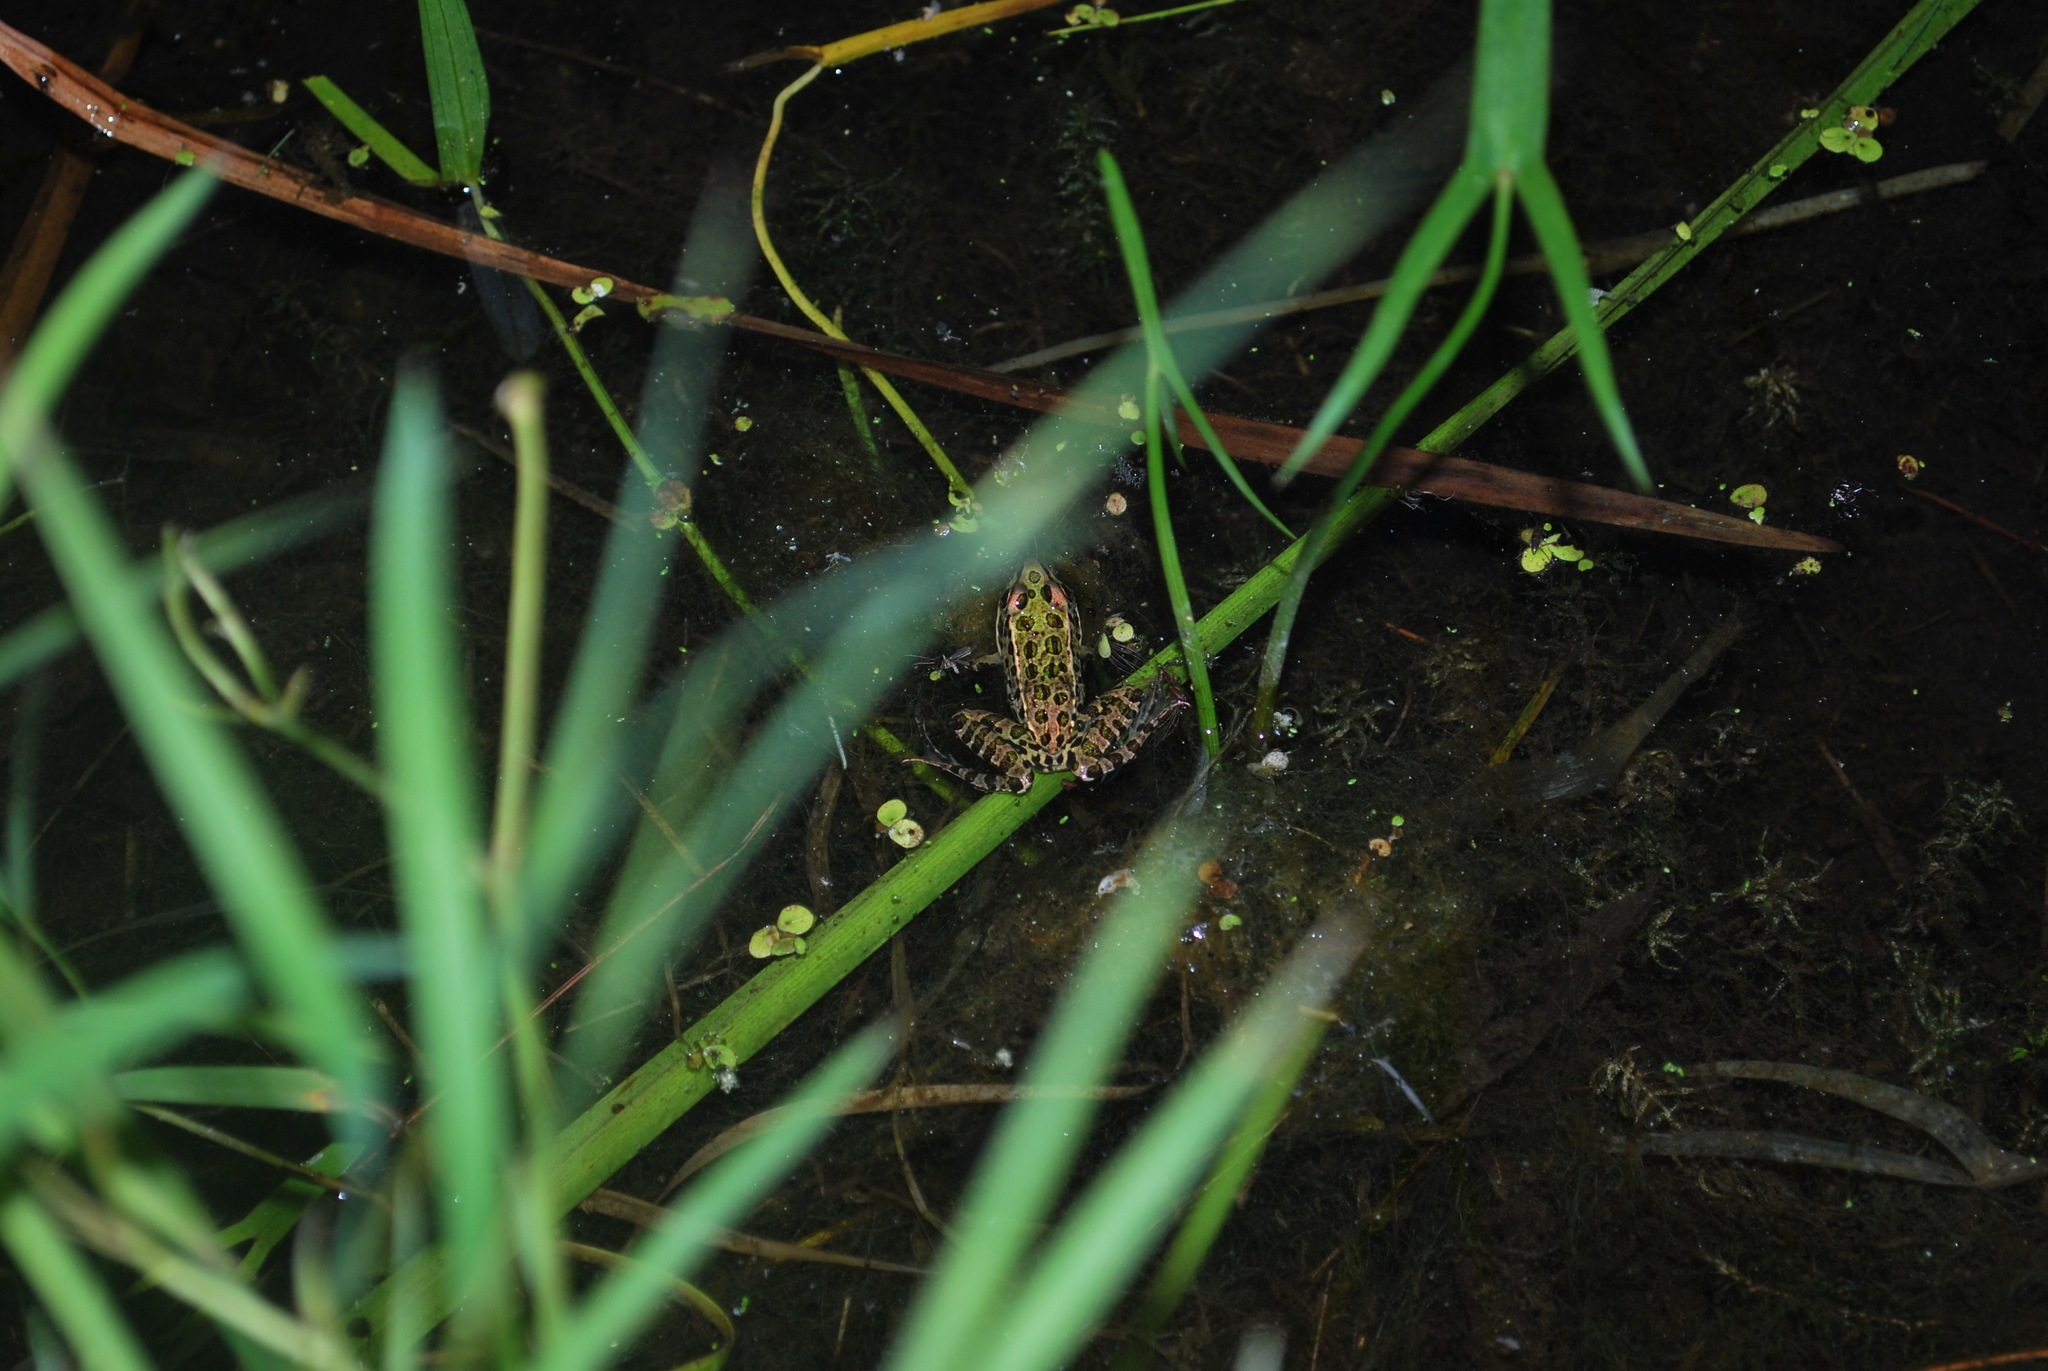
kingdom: Animalia
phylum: Chordata
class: Amphibia
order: Anura
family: Ranidae
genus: Lithobates
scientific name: Lithobates pipiens
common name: Northern leopard frog
